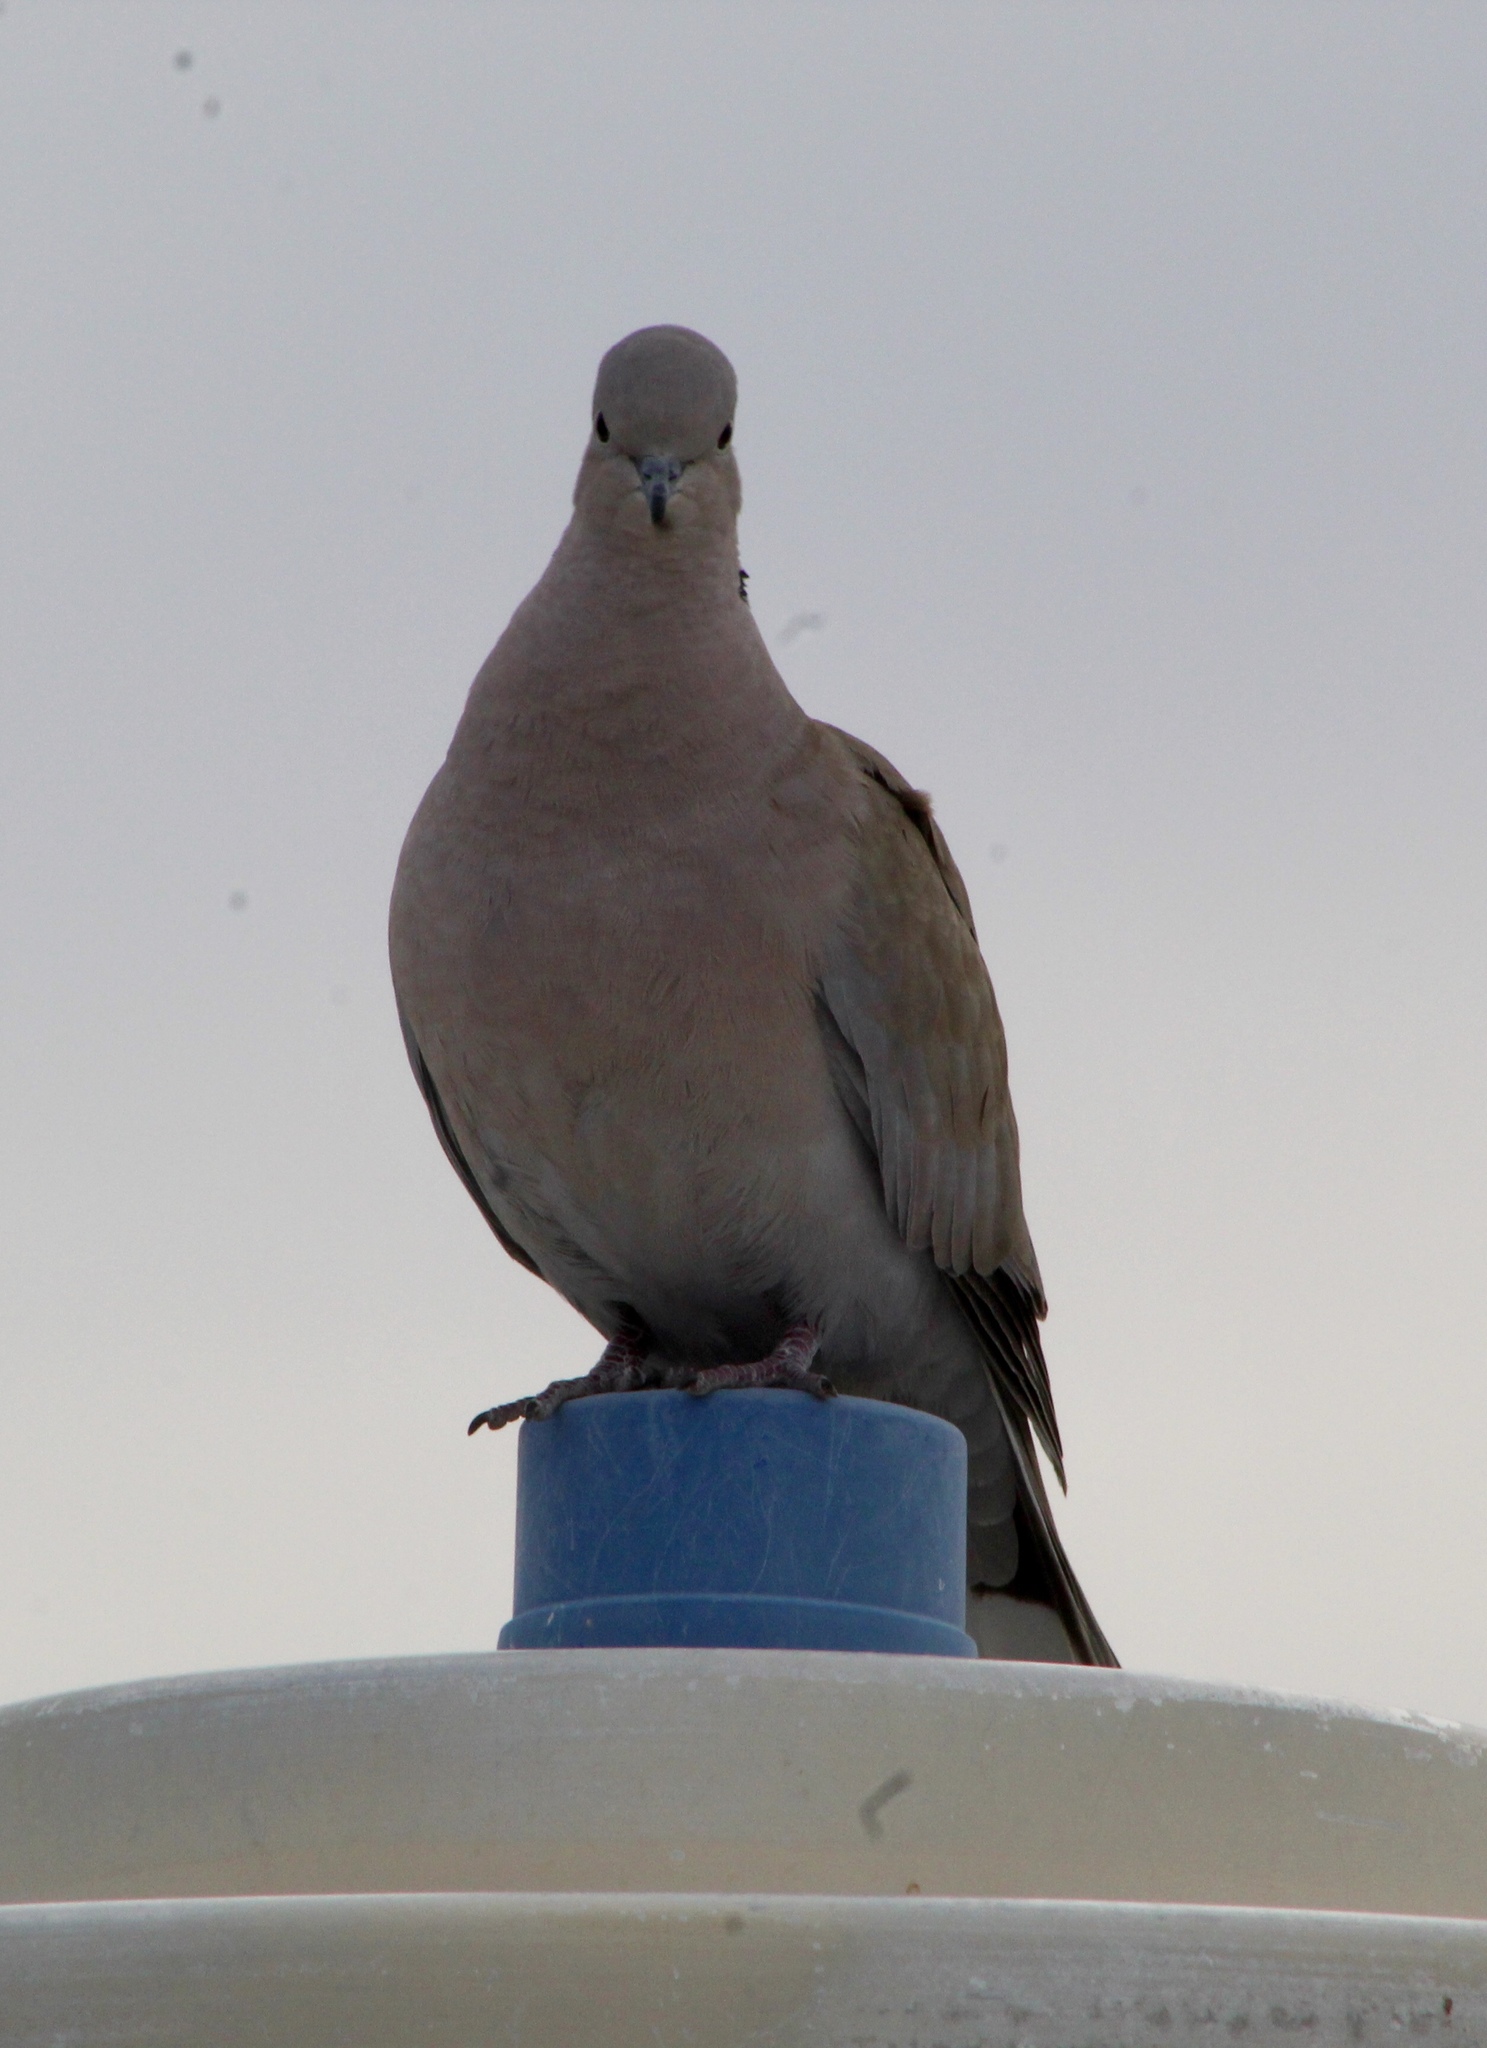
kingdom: Animalia
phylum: Chordata
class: Aves
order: Columbiformes
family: Columbidae
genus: Streptopelia
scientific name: Streptopelia decaocto
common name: Eurasian collared dove
